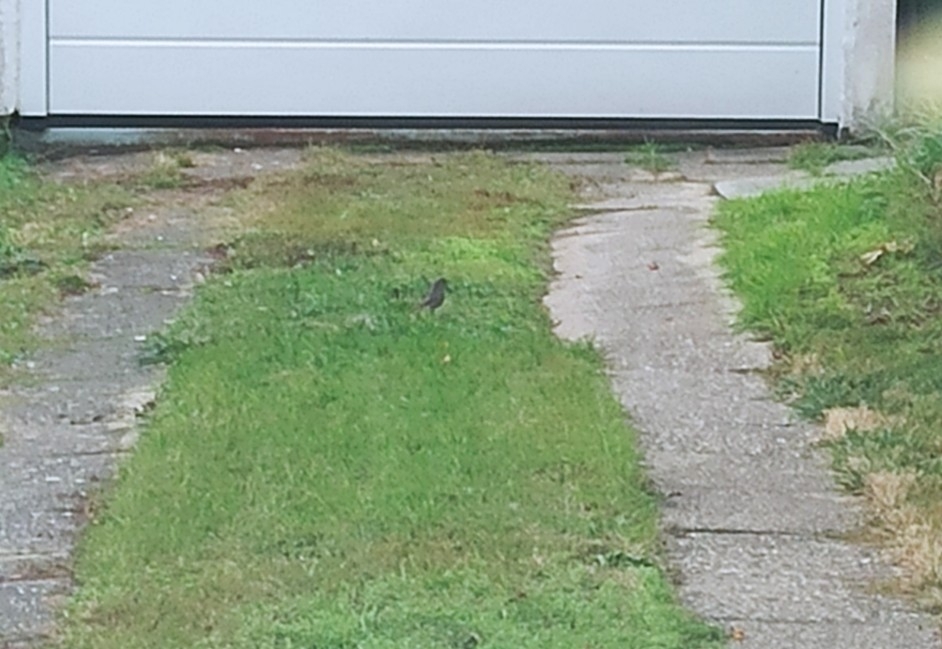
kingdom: Animalia
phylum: Chordata
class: Aves
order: Passeriformes
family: Muscicapidae
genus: Phoenicurus
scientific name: Phoenicurus ochruros
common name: Black redstart
